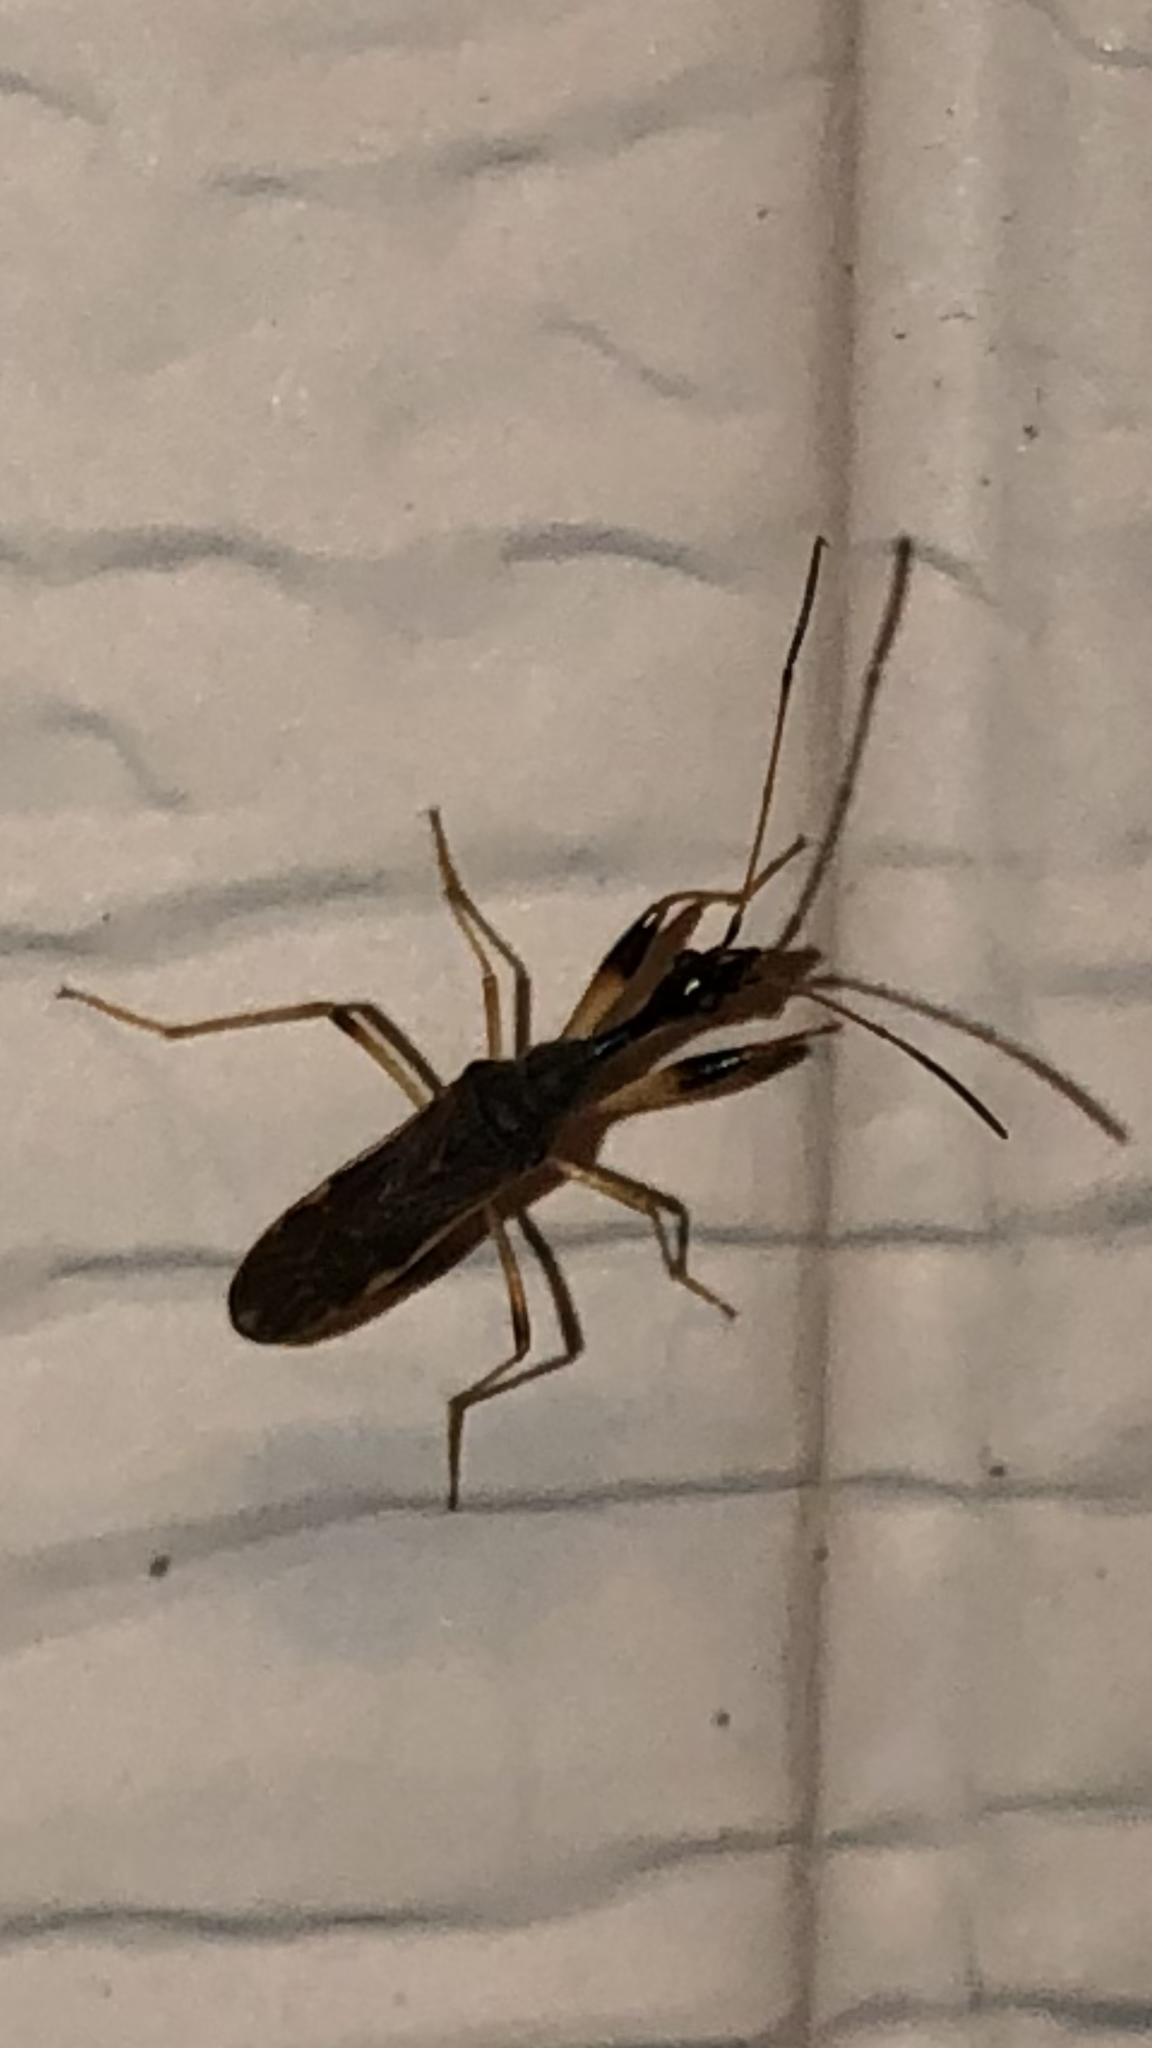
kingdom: Animalia
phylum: Arthropoda
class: Insecta
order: Hemiptera
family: Rhyparochromidae
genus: Myodocha
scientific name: Myodocha serripes
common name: Long-necked seed bug
